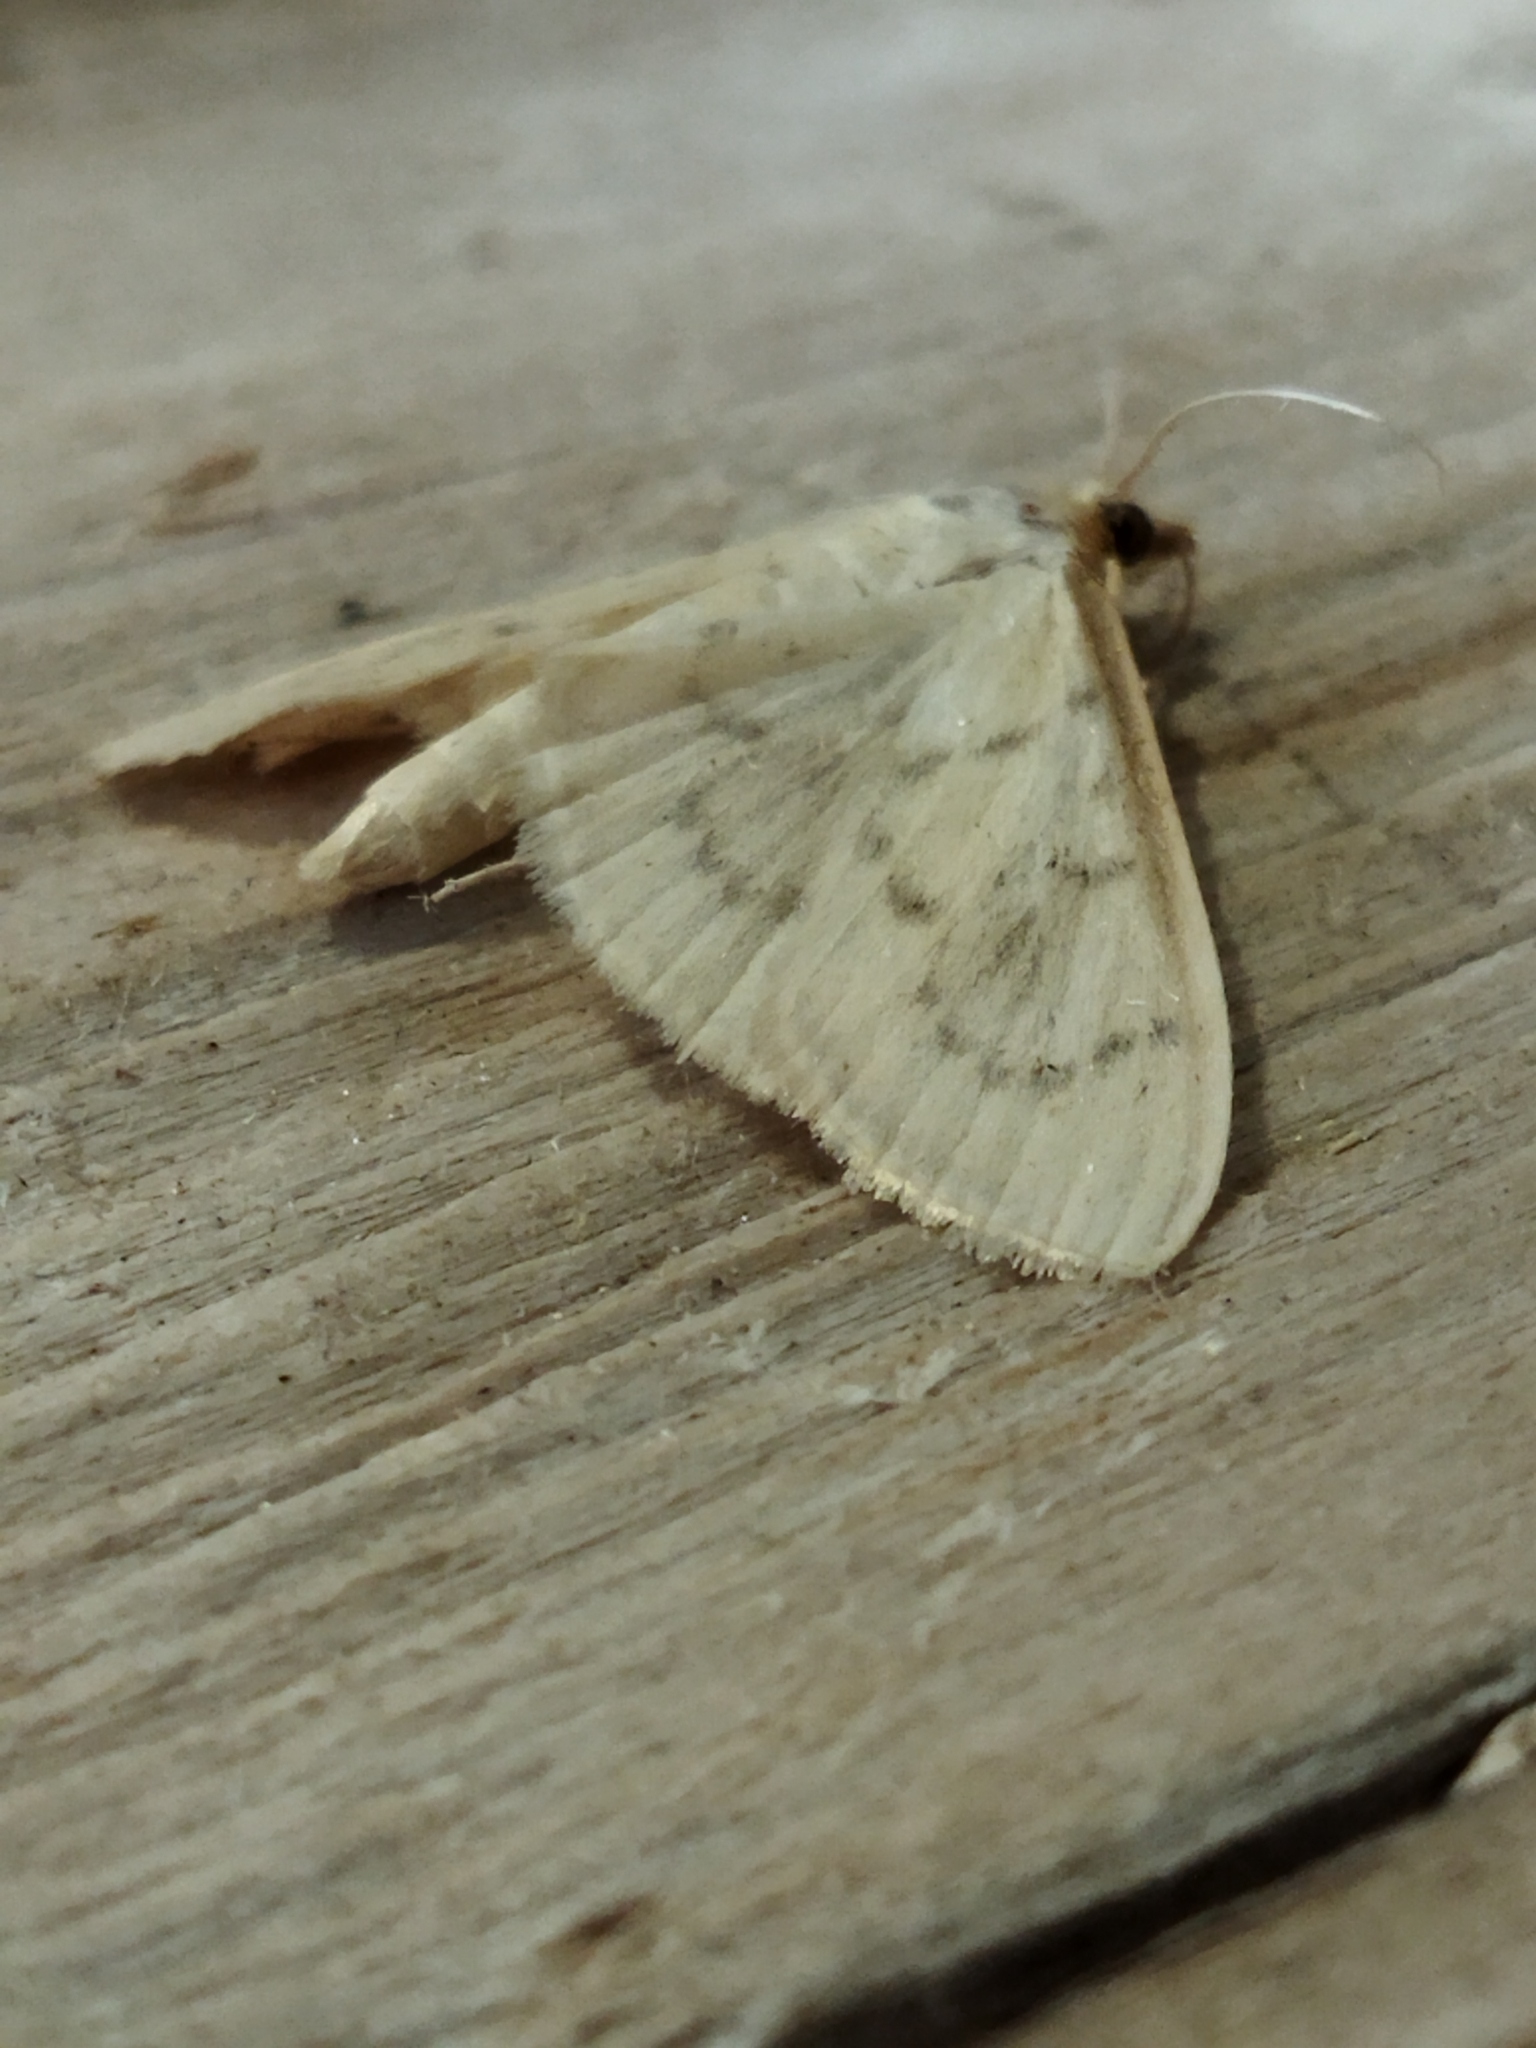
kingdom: Animalia
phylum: Arthropoda
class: Insecta
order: Lepidoptera
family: Crambidae
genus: Pyrausta
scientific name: Pyrausta testalis
